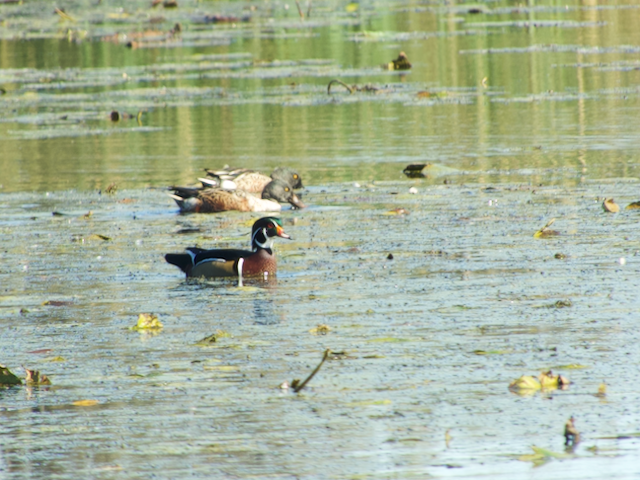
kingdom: Animalia
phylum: Chordata
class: Aves
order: Anseriformes
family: Anatidae
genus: Aix
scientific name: Aix sponsa
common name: Wood duck
